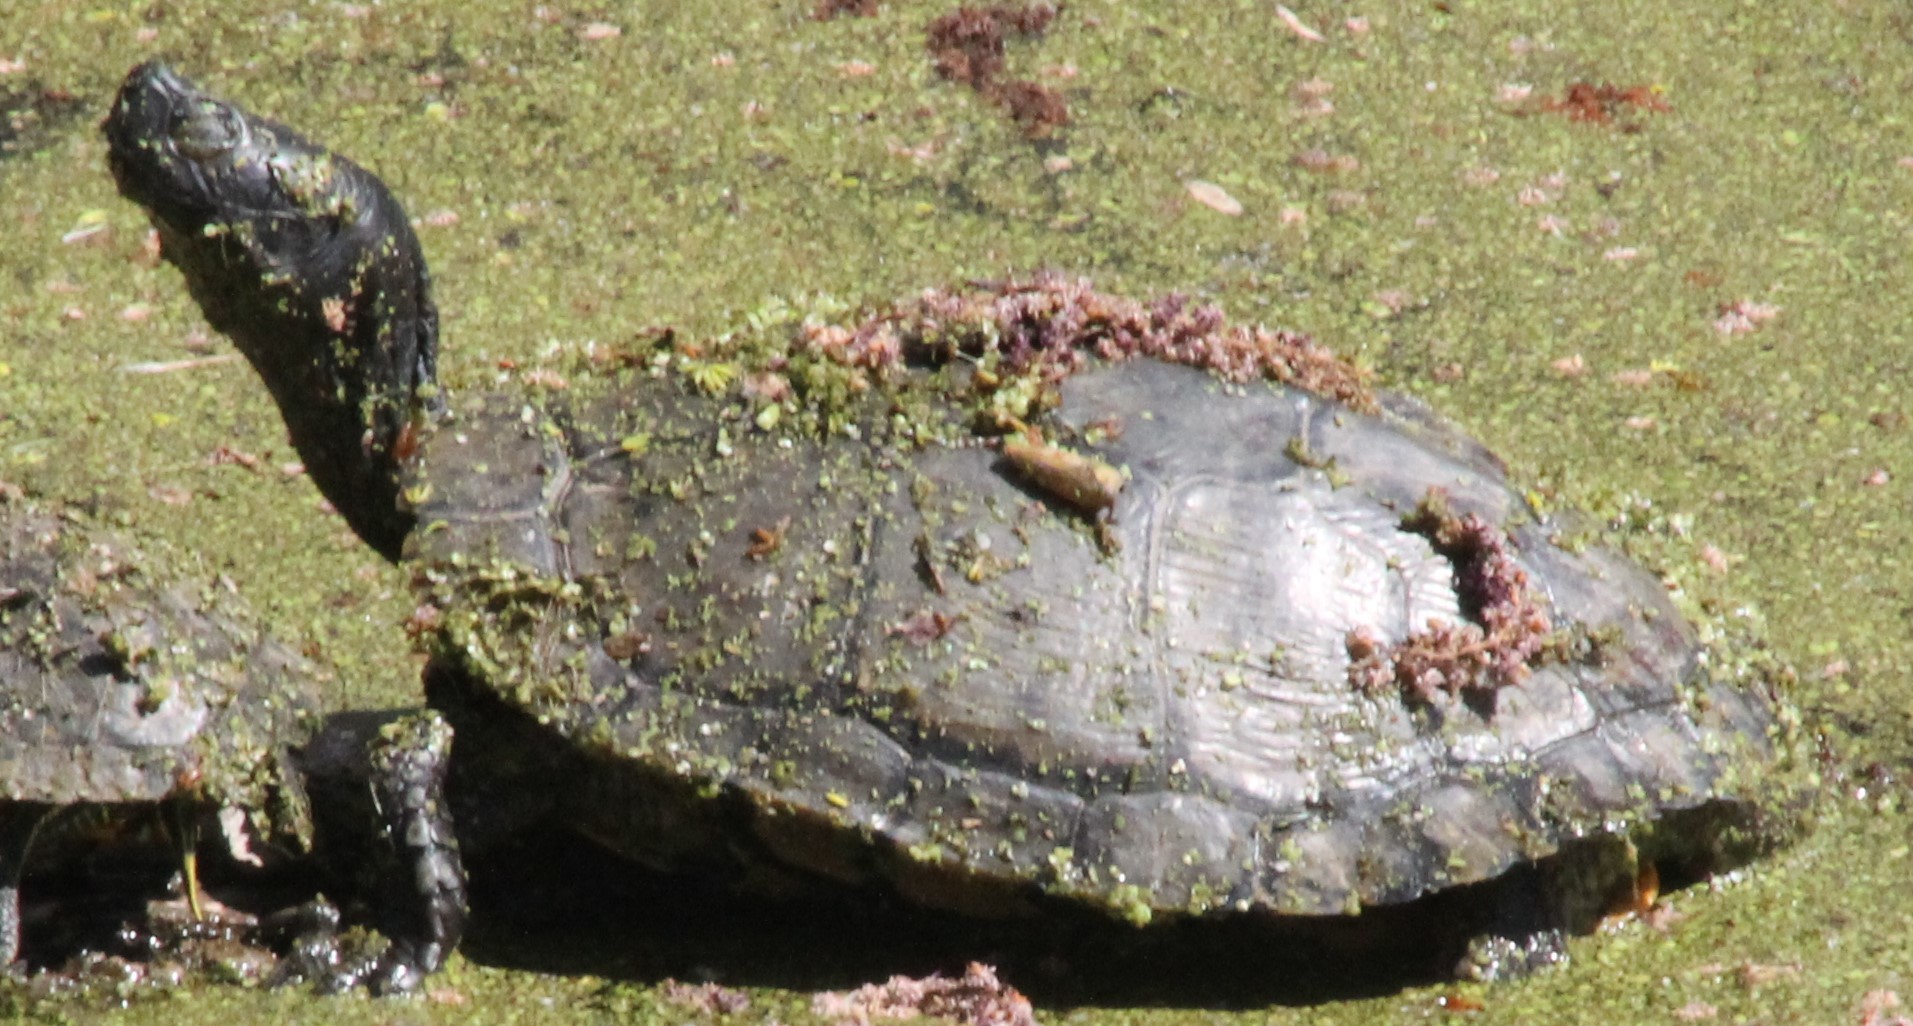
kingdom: Animalia
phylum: Chordata
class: Testudines
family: Emydidae
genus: Trachemys
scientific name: Trachemys scripta
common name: Slider
